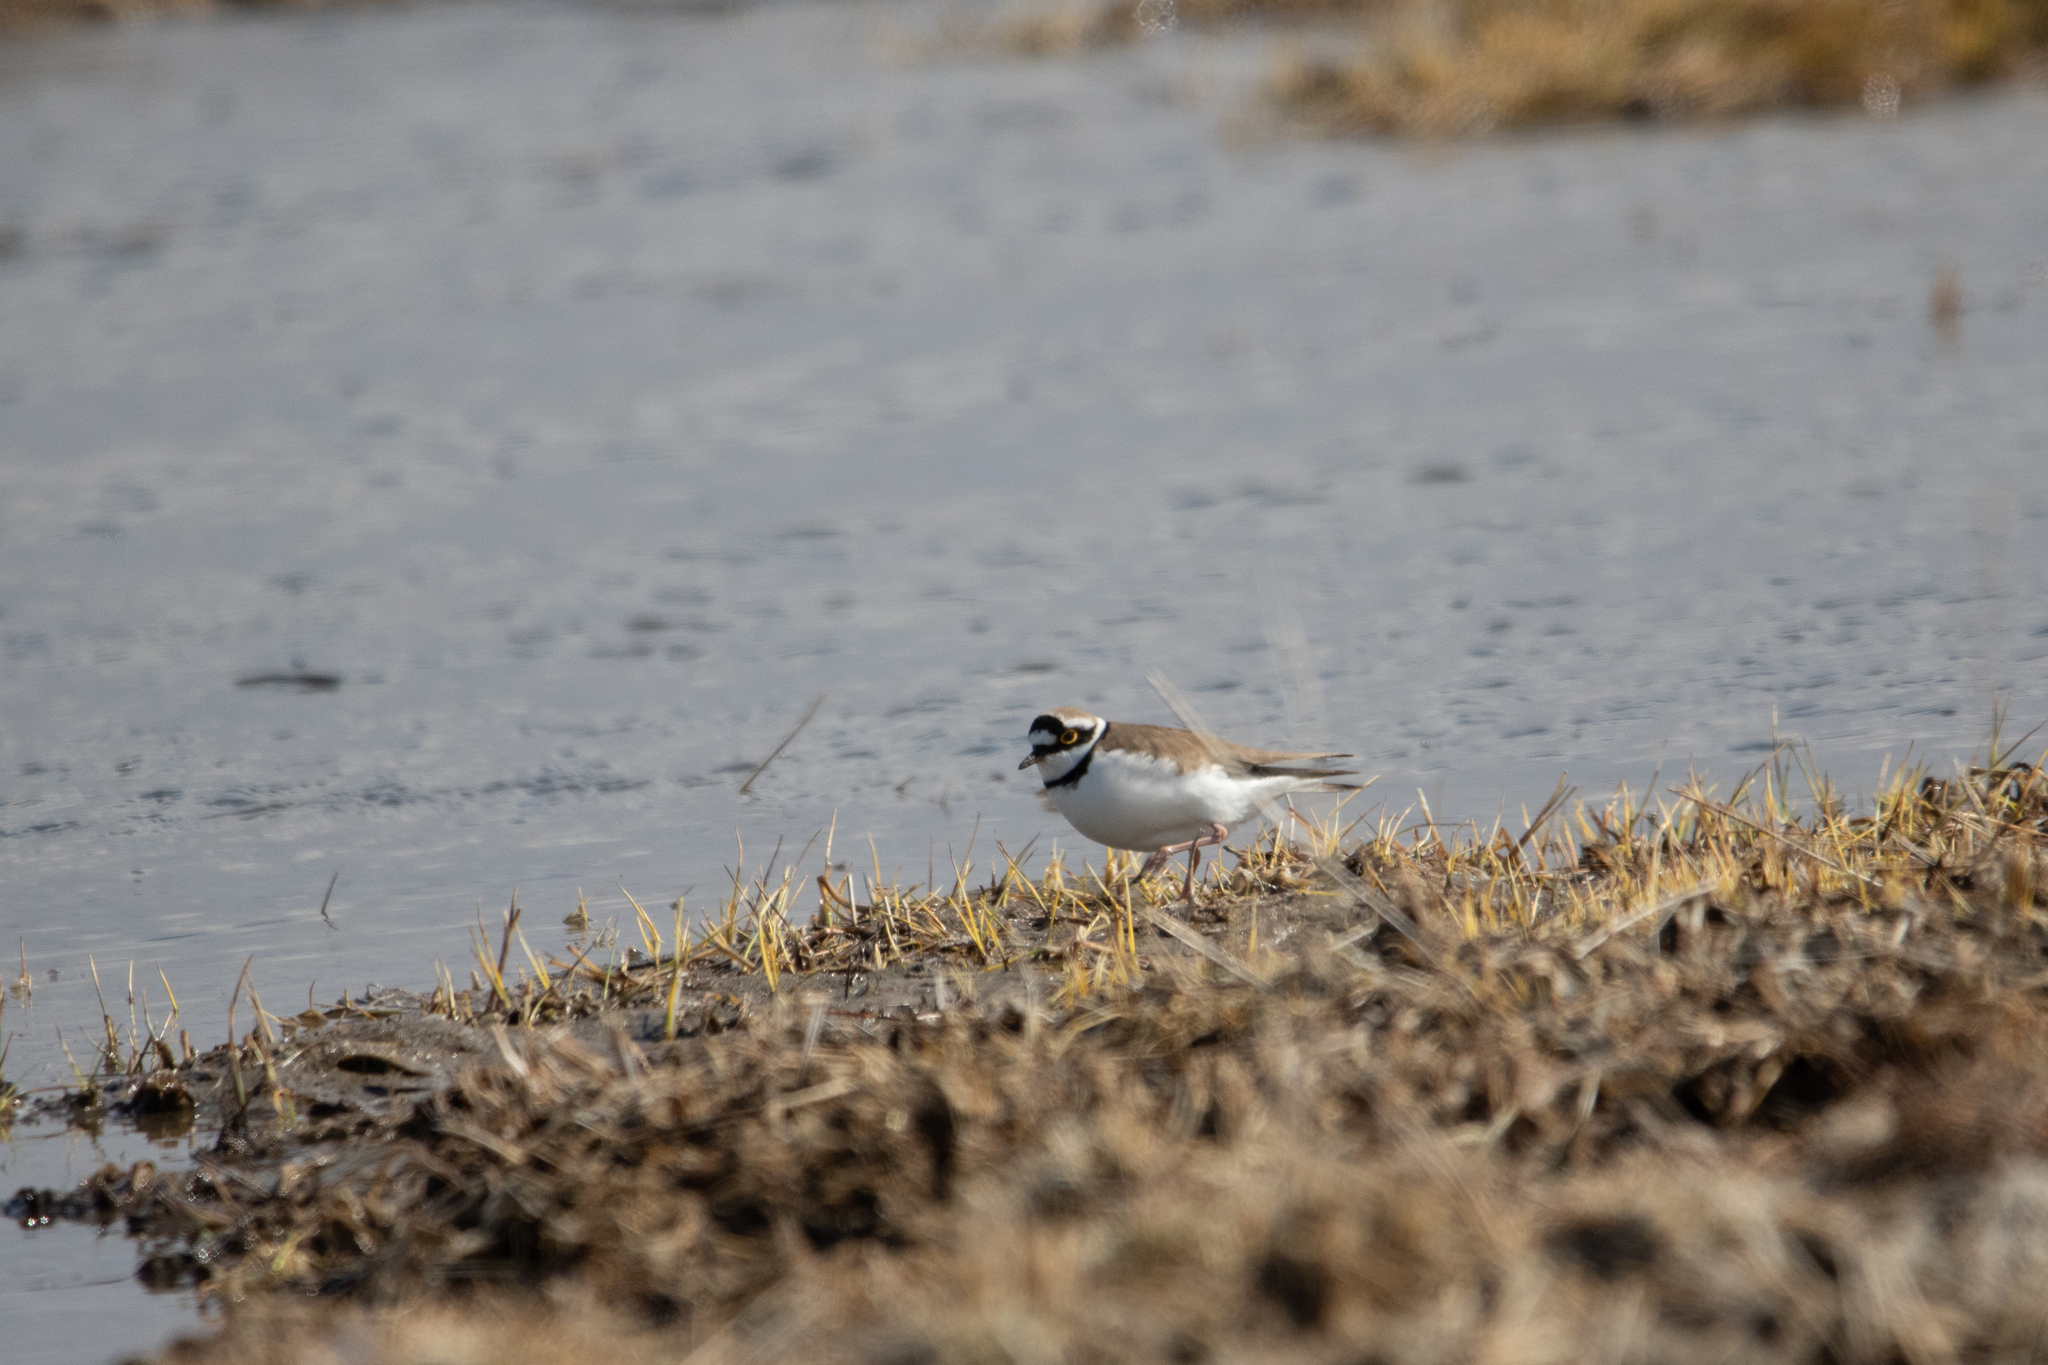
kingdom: Animalia
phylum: Chordata
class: Aves
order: Charadriiformes
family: Charadriidae
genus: Charadrius
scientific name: Charadrius dubius
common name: Little ringed plover
